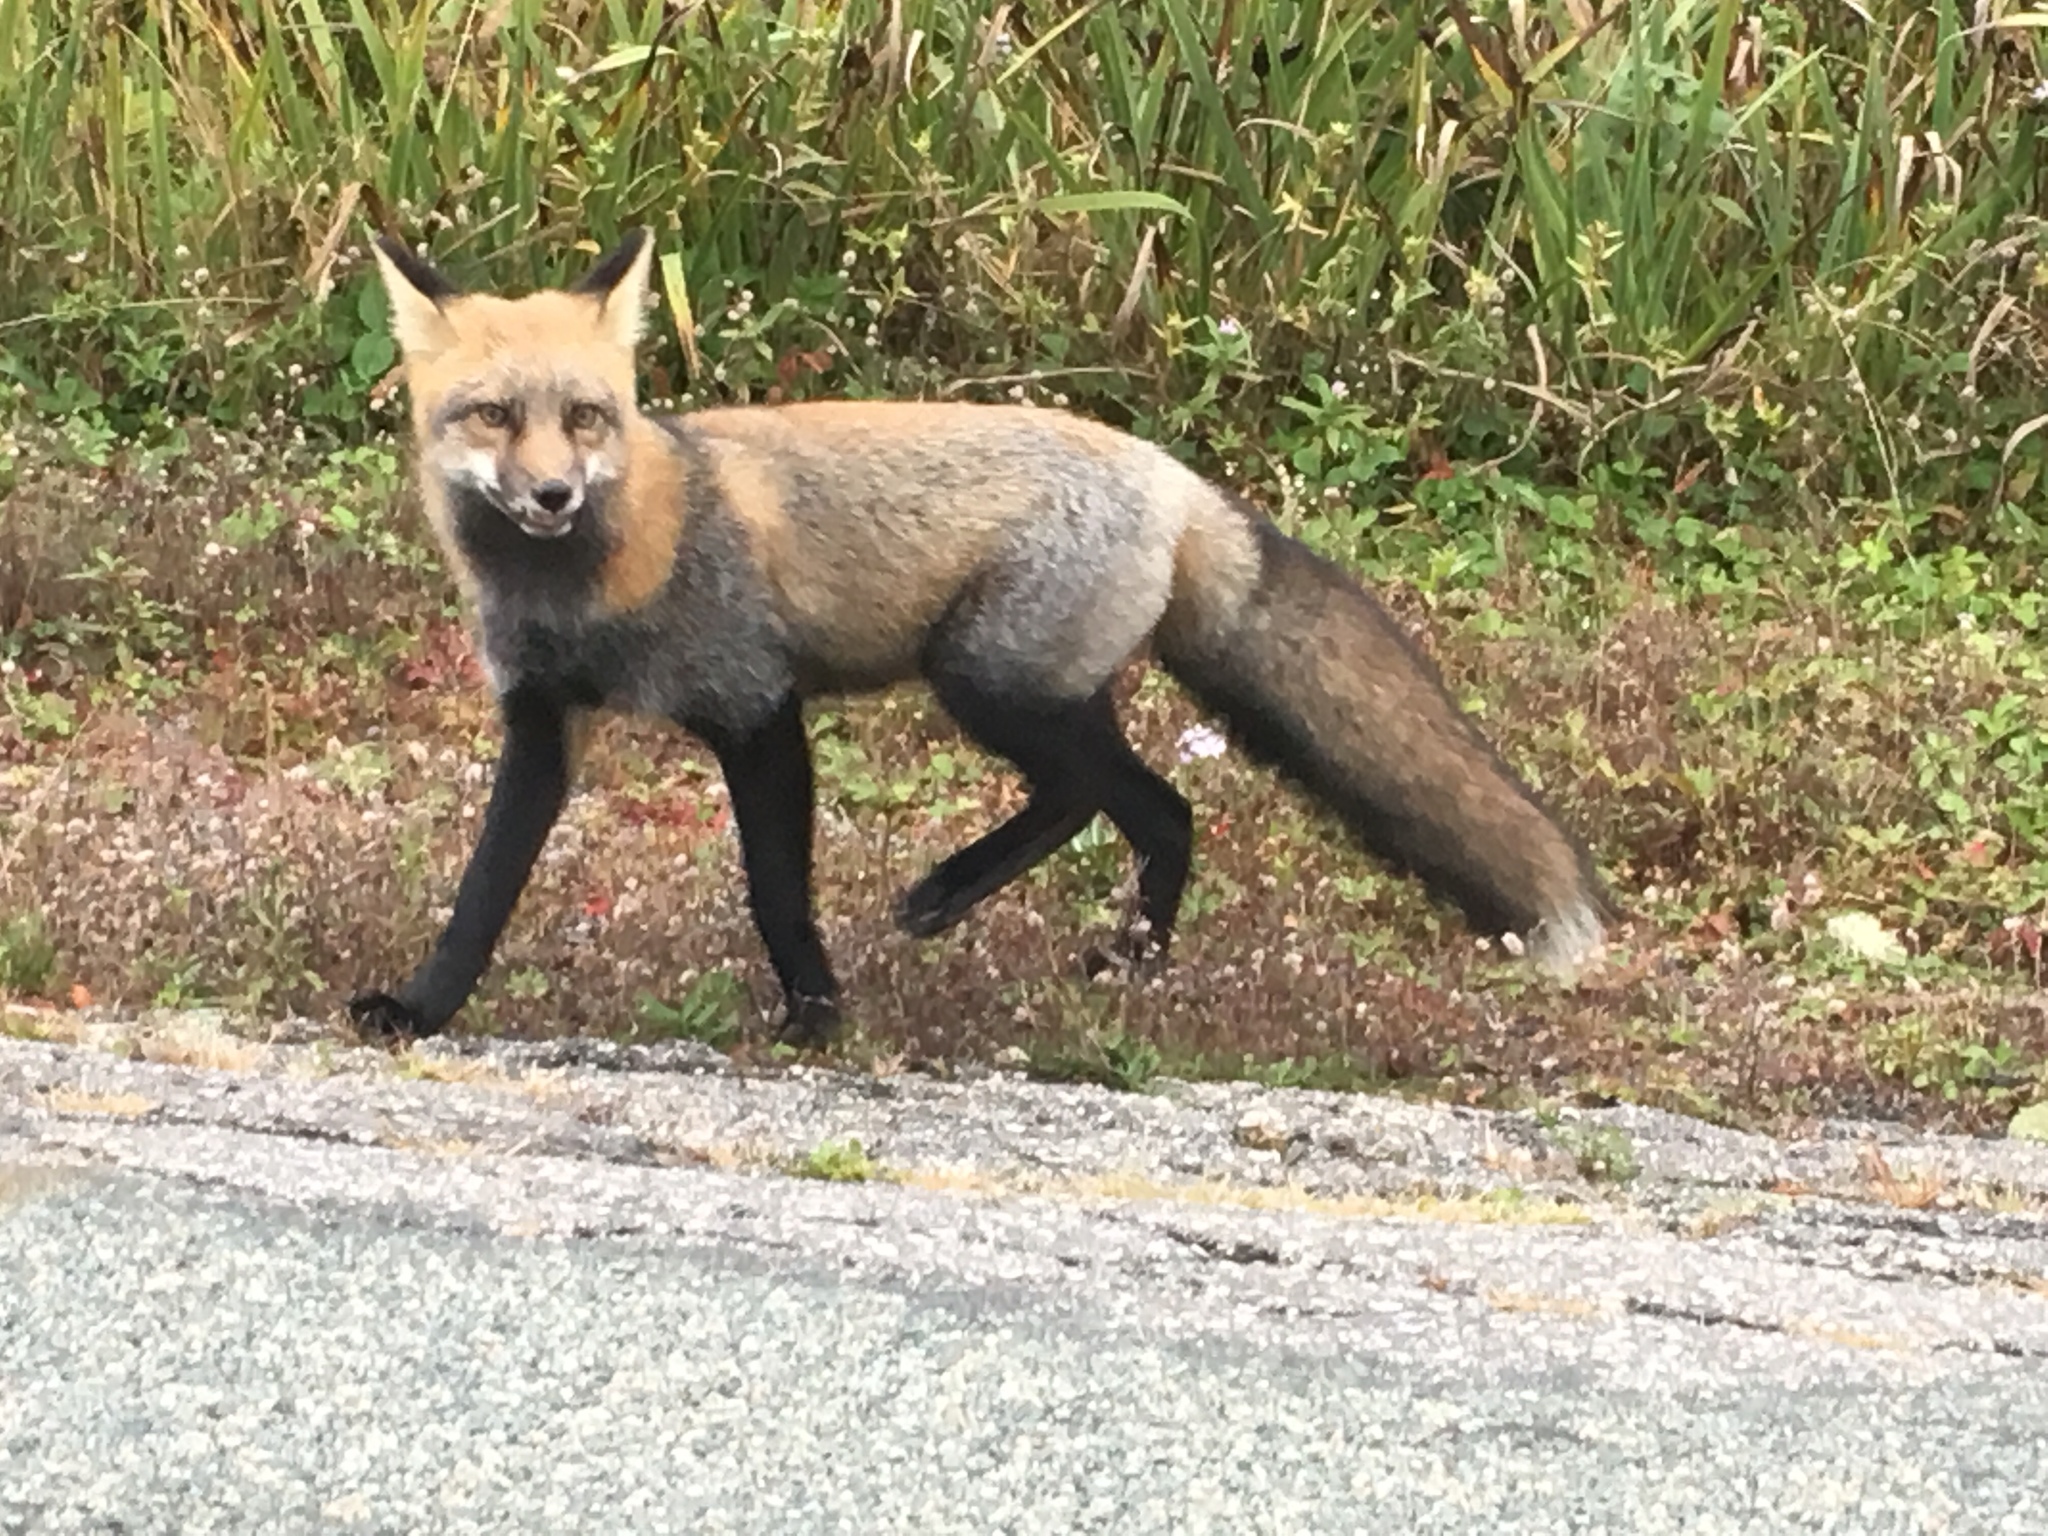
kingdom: Animalia
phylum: Chordata
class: Mammalia
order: Carnivora
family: Canidae
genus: Vulpes
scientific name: Vulpes vulpes
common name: Red fox
